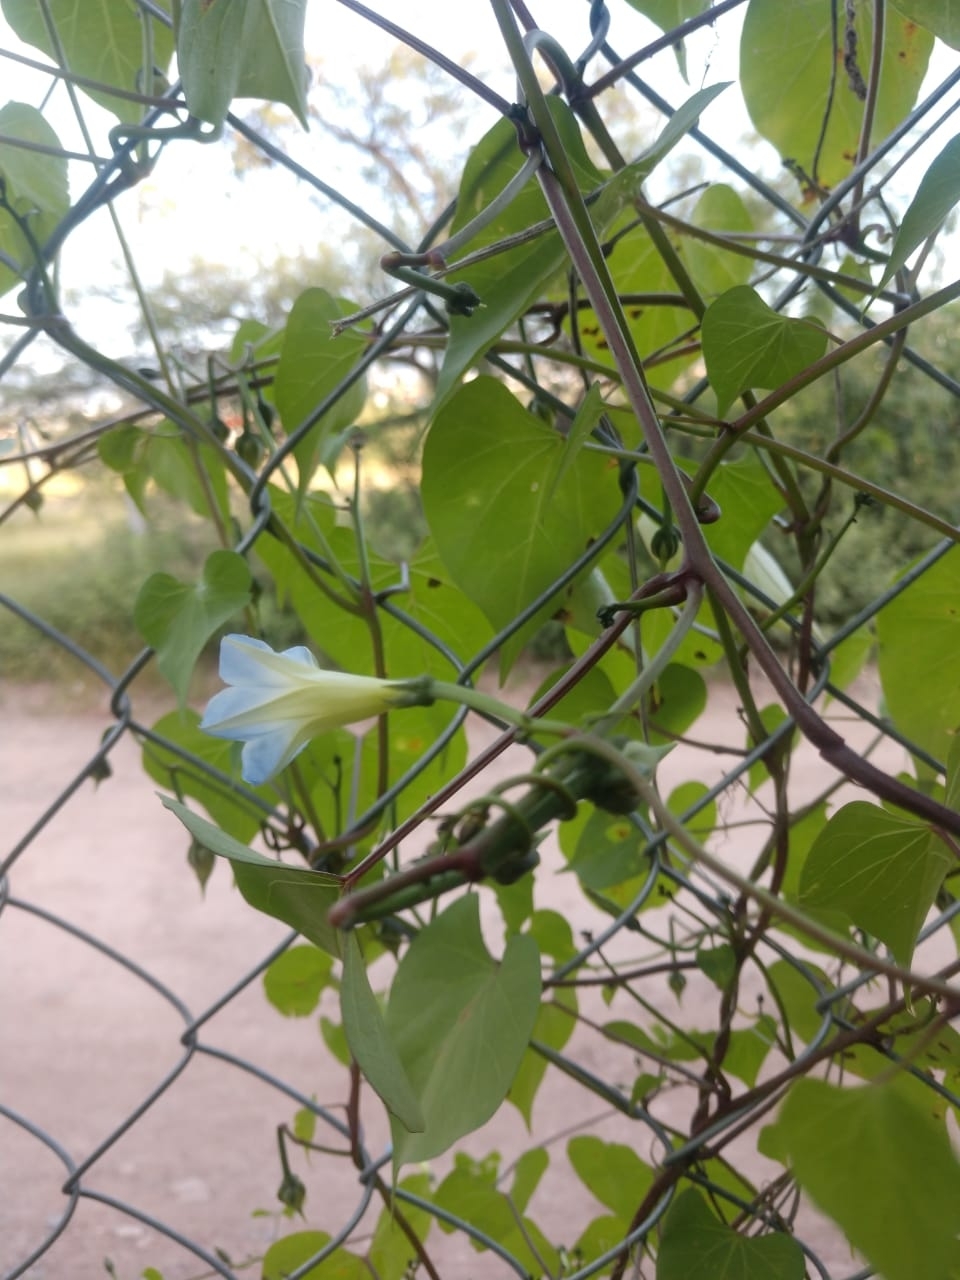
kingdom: Plantae
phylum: Tracheophyta
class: Magnoliopsida
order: Solanales
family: Convolvulaceae
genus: Ipomoea
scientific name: Ipomoea cardiophylla
